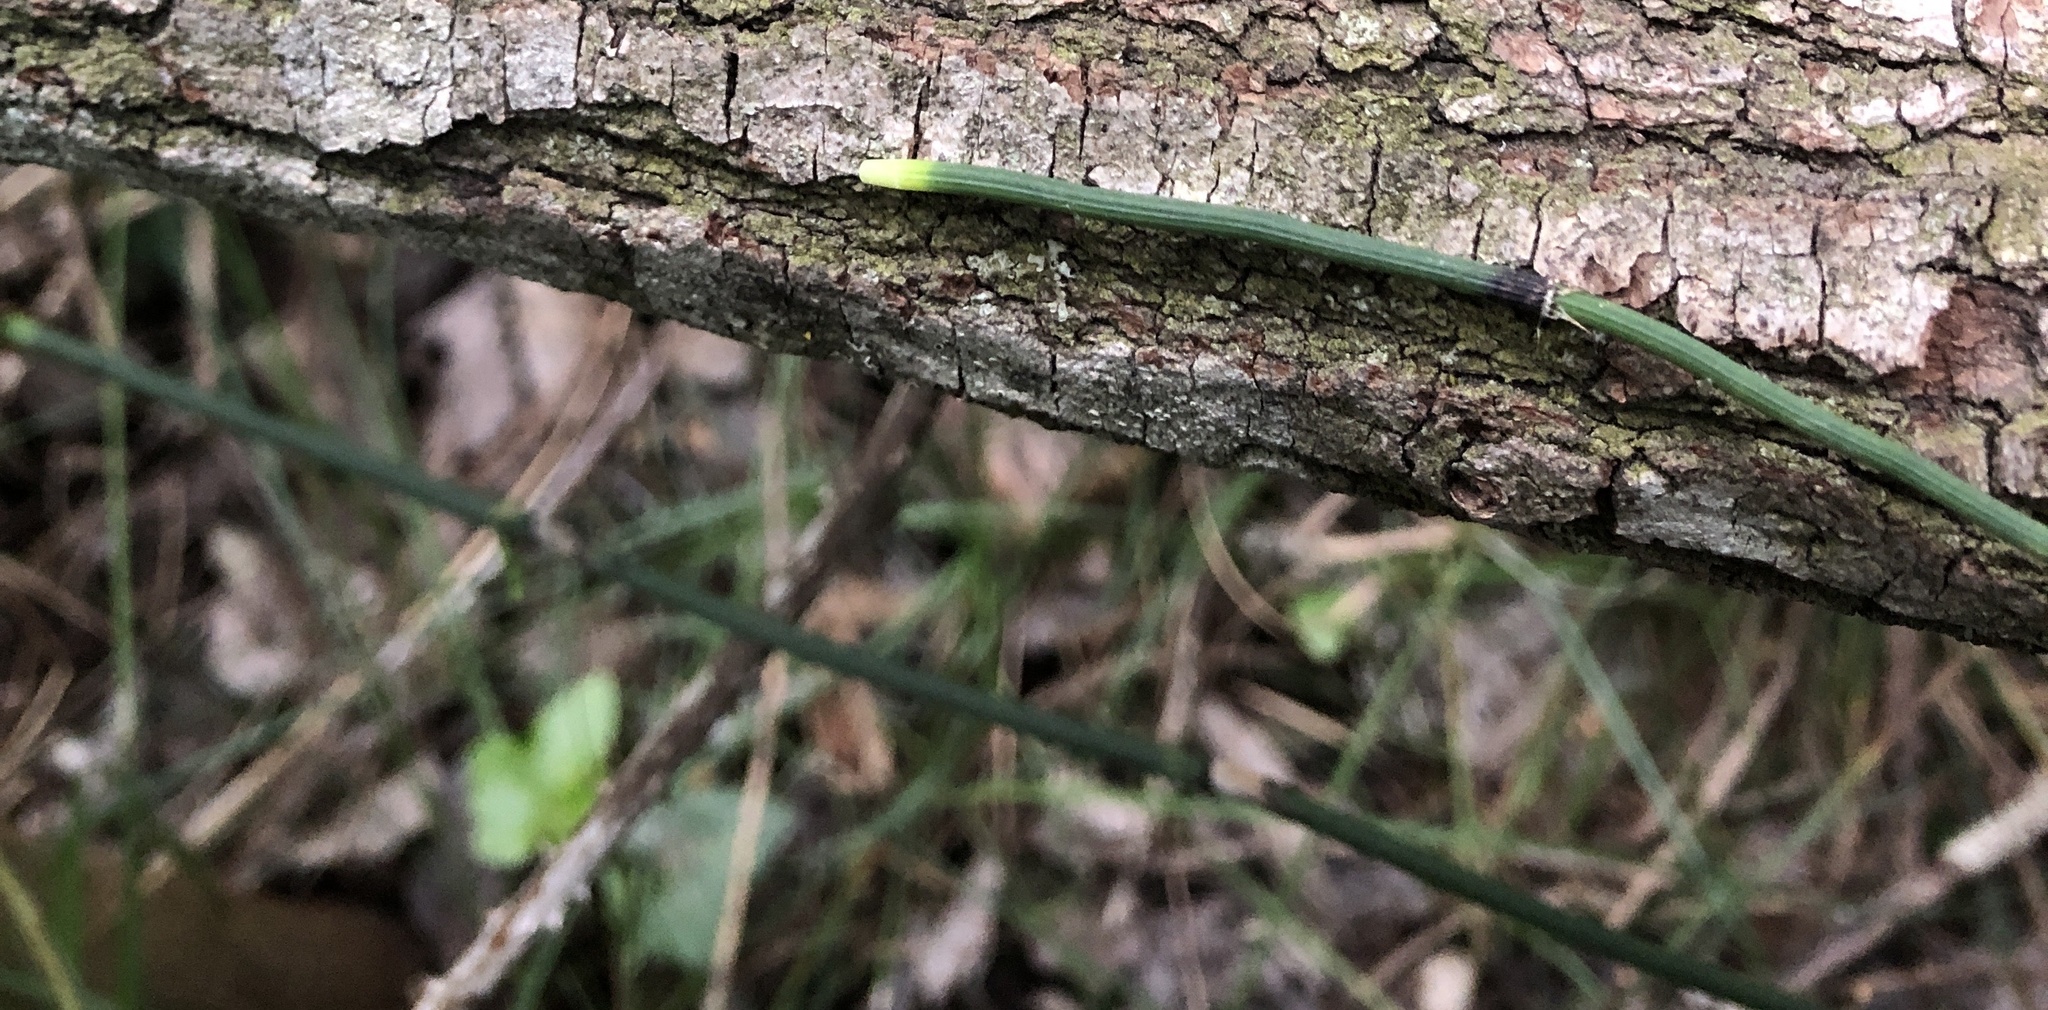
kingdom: Plantae
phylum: Tracheophyta
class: Polypodiopsida
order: Equisetales
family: Equisetaceae
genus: Equisetum
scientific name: Equisetum ramosissimum
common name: Branched horsetail
